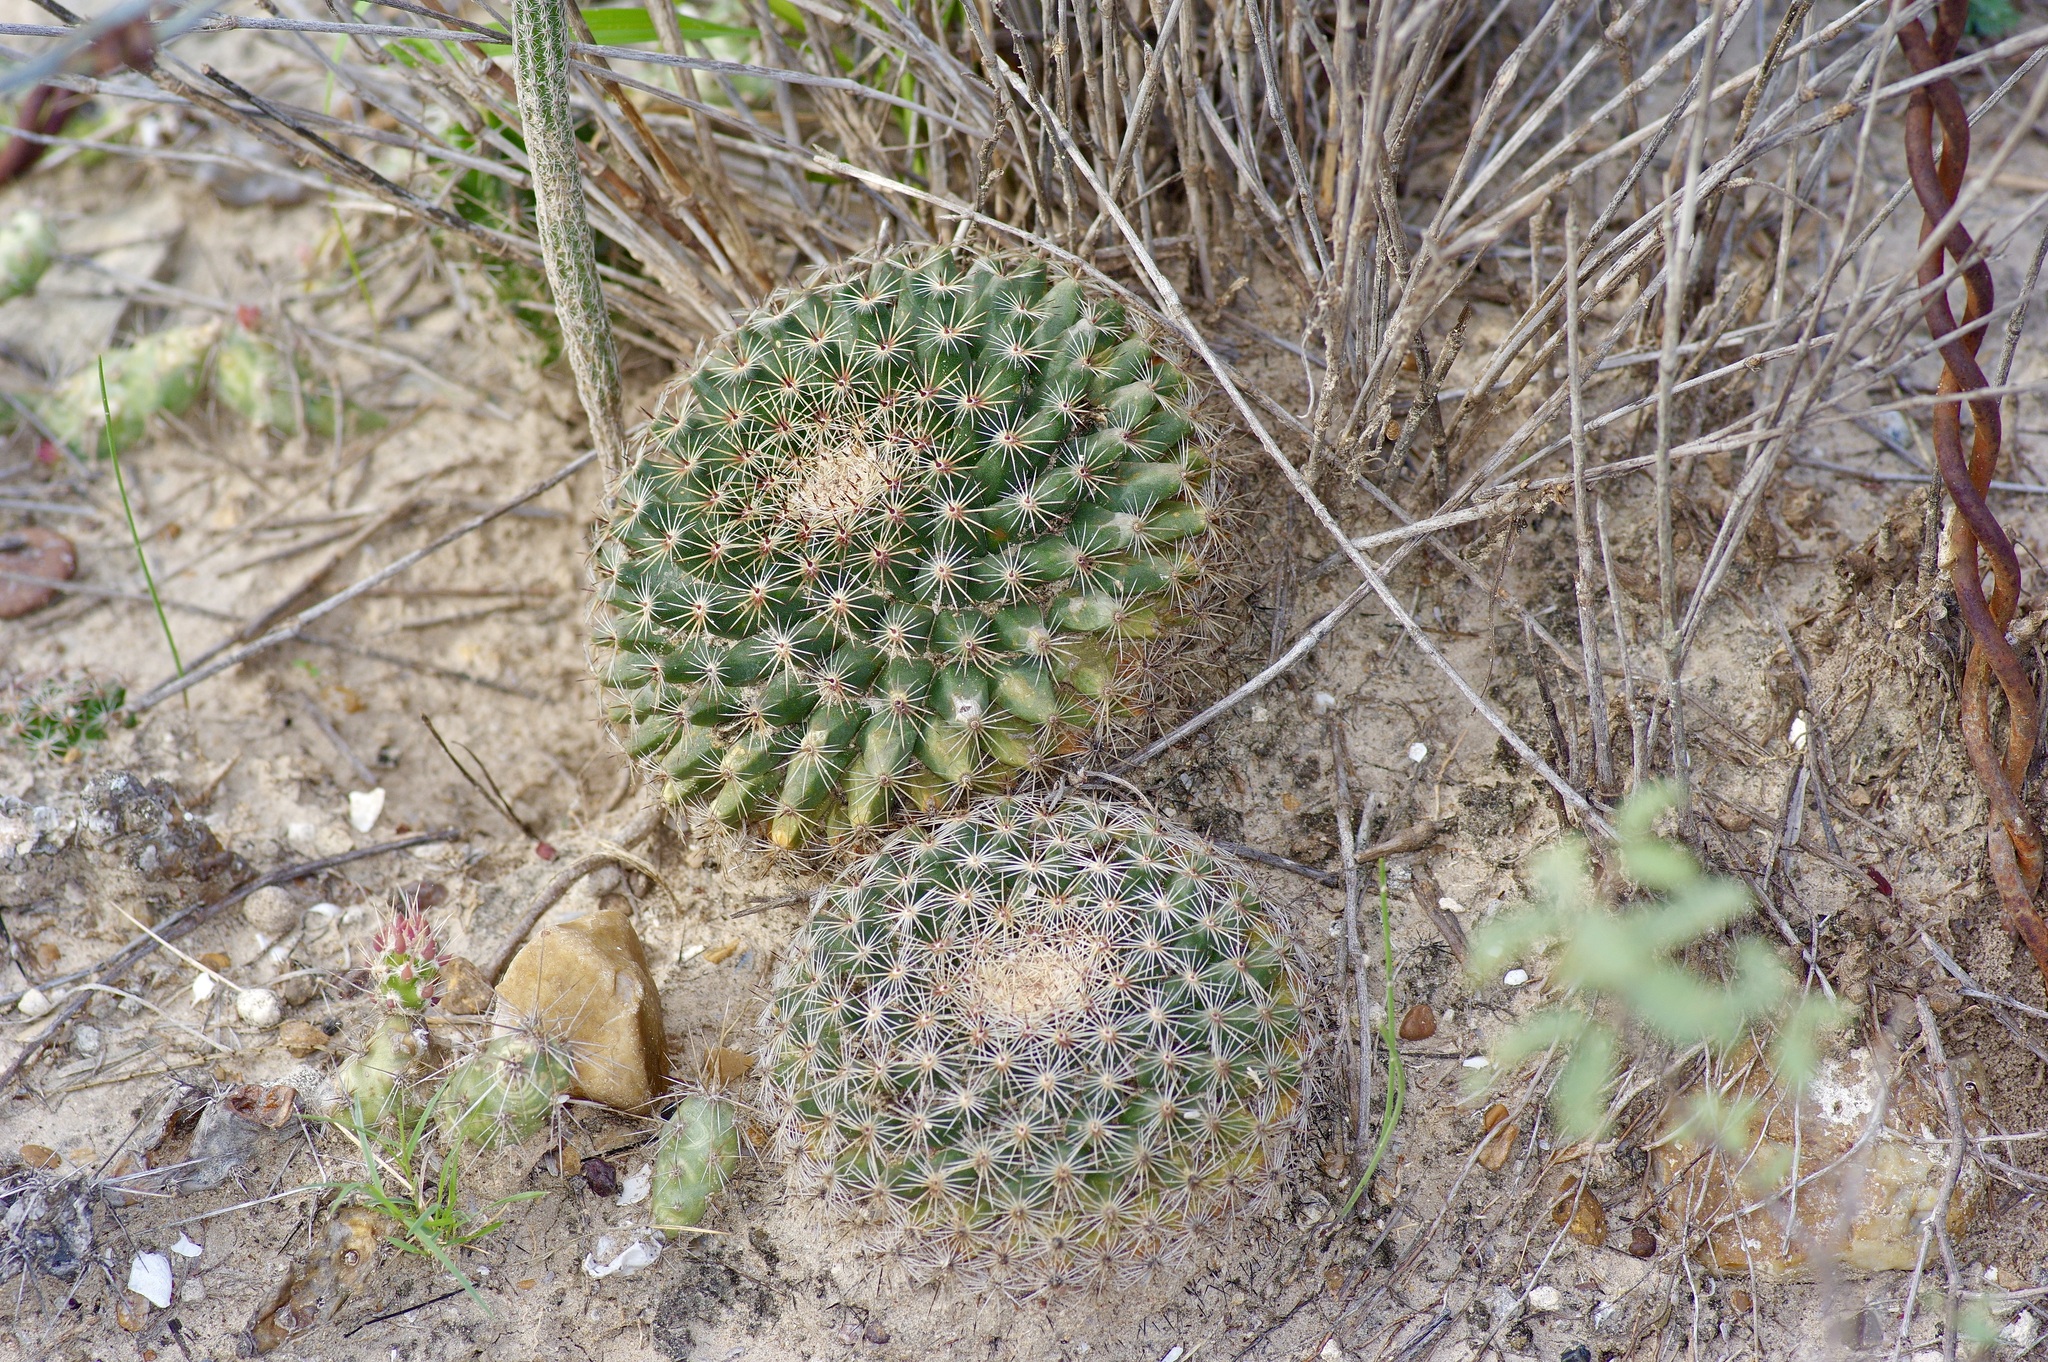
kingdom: Plantae
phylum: Tracheophyta
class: Magnoliopsida
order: Caryophyllales
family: Cactaceae
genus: Mammillaria
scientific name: Mammillaria heyderi
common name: Little nipple cactus
